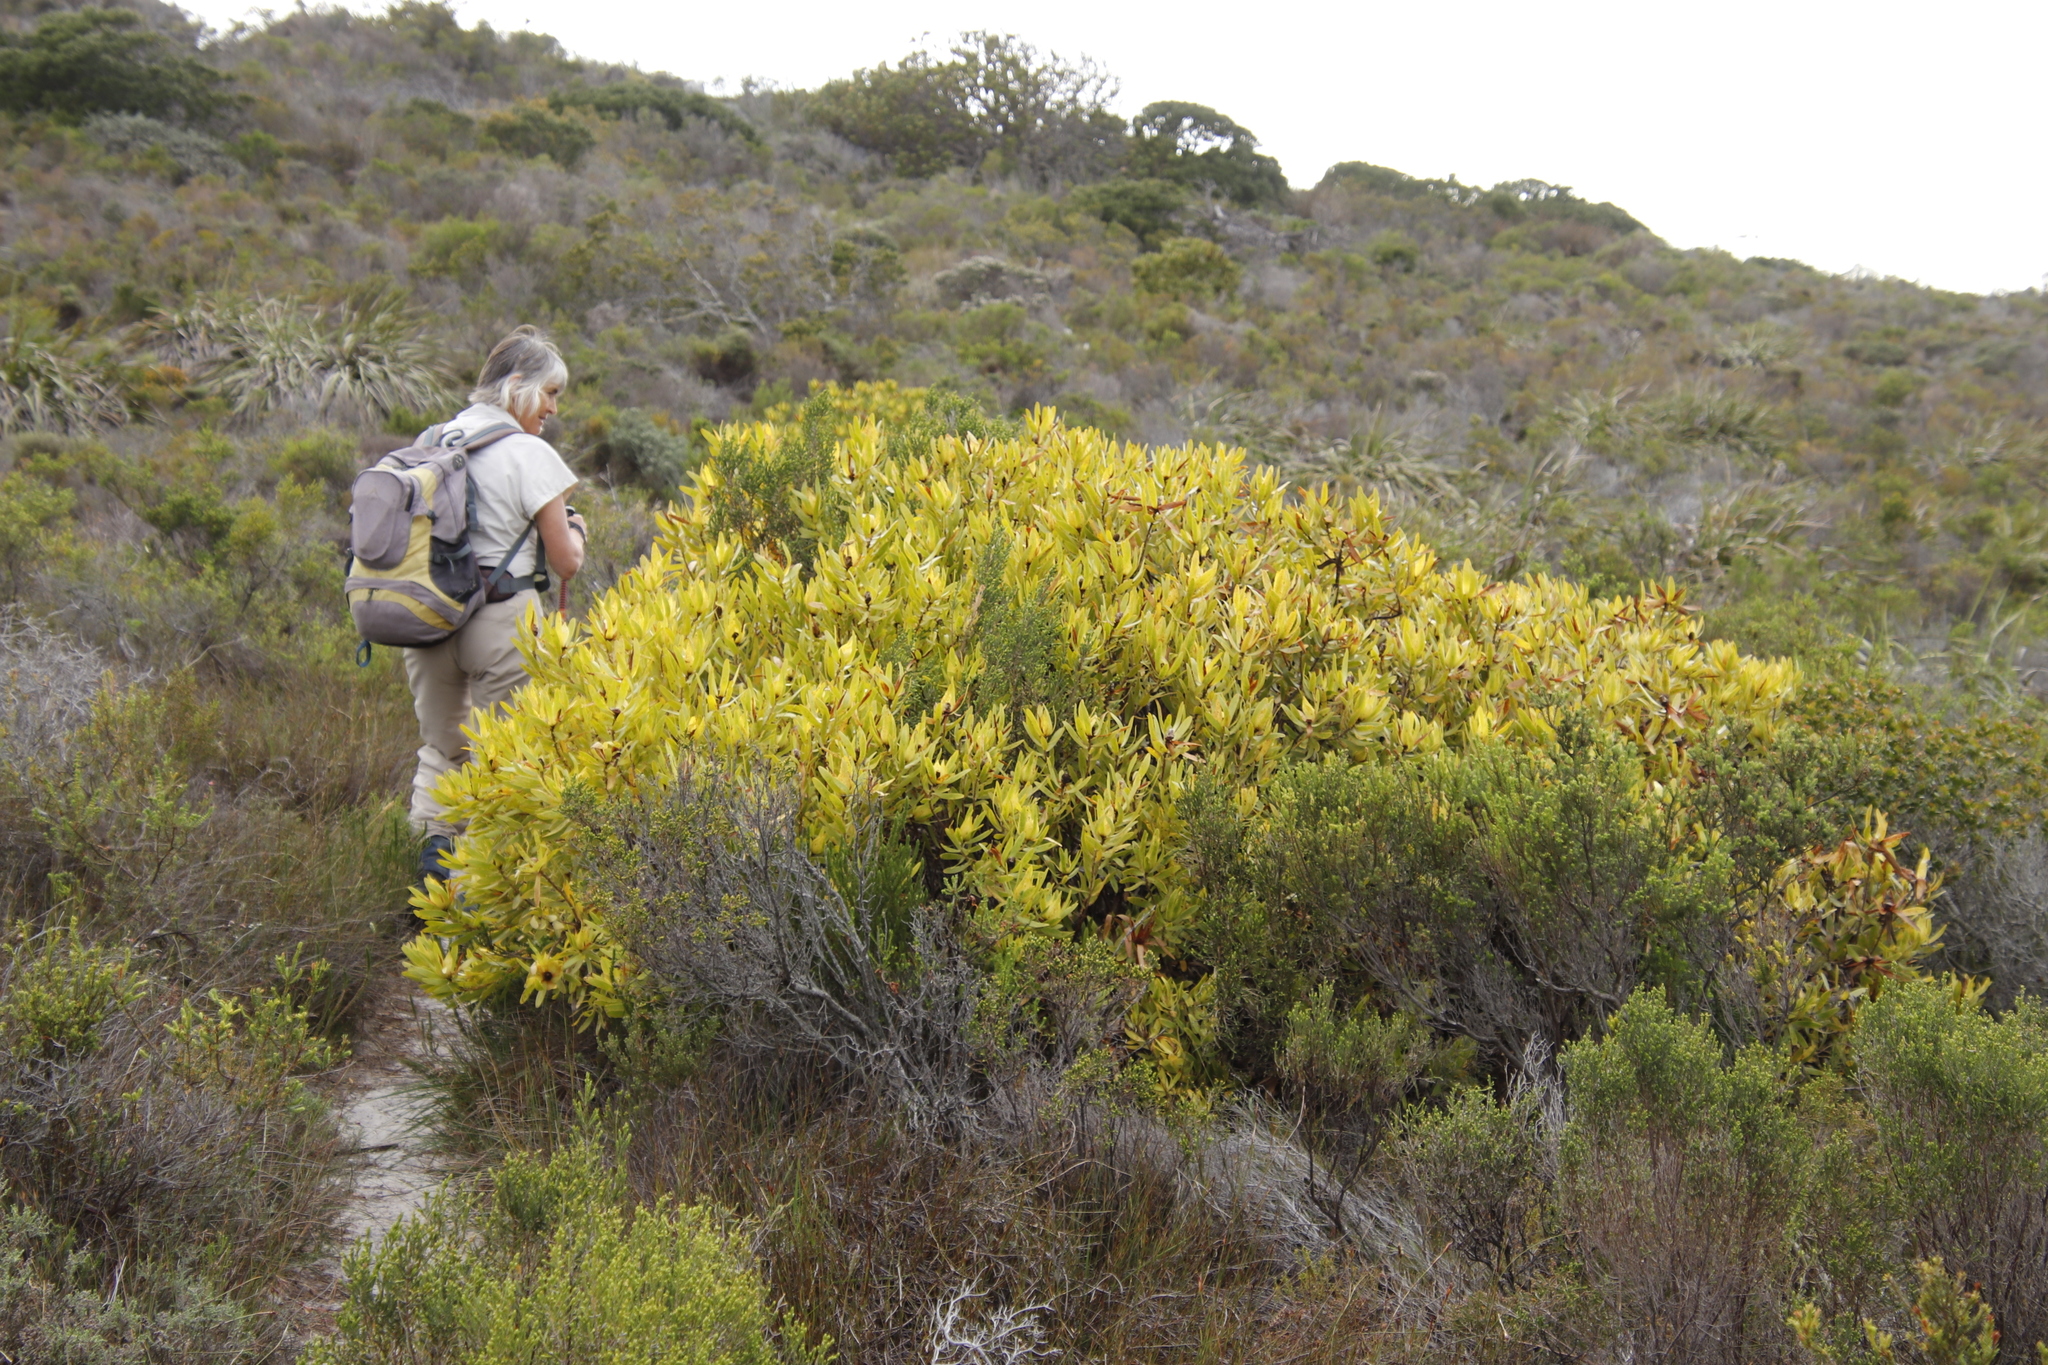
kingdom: Plantae
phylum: Tracheophyta
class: Magnoliopsida
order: Proteales
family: Proteaceae
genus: Leucadendron
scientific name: Leucadendron laureolum
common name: Golden sunshinebush
